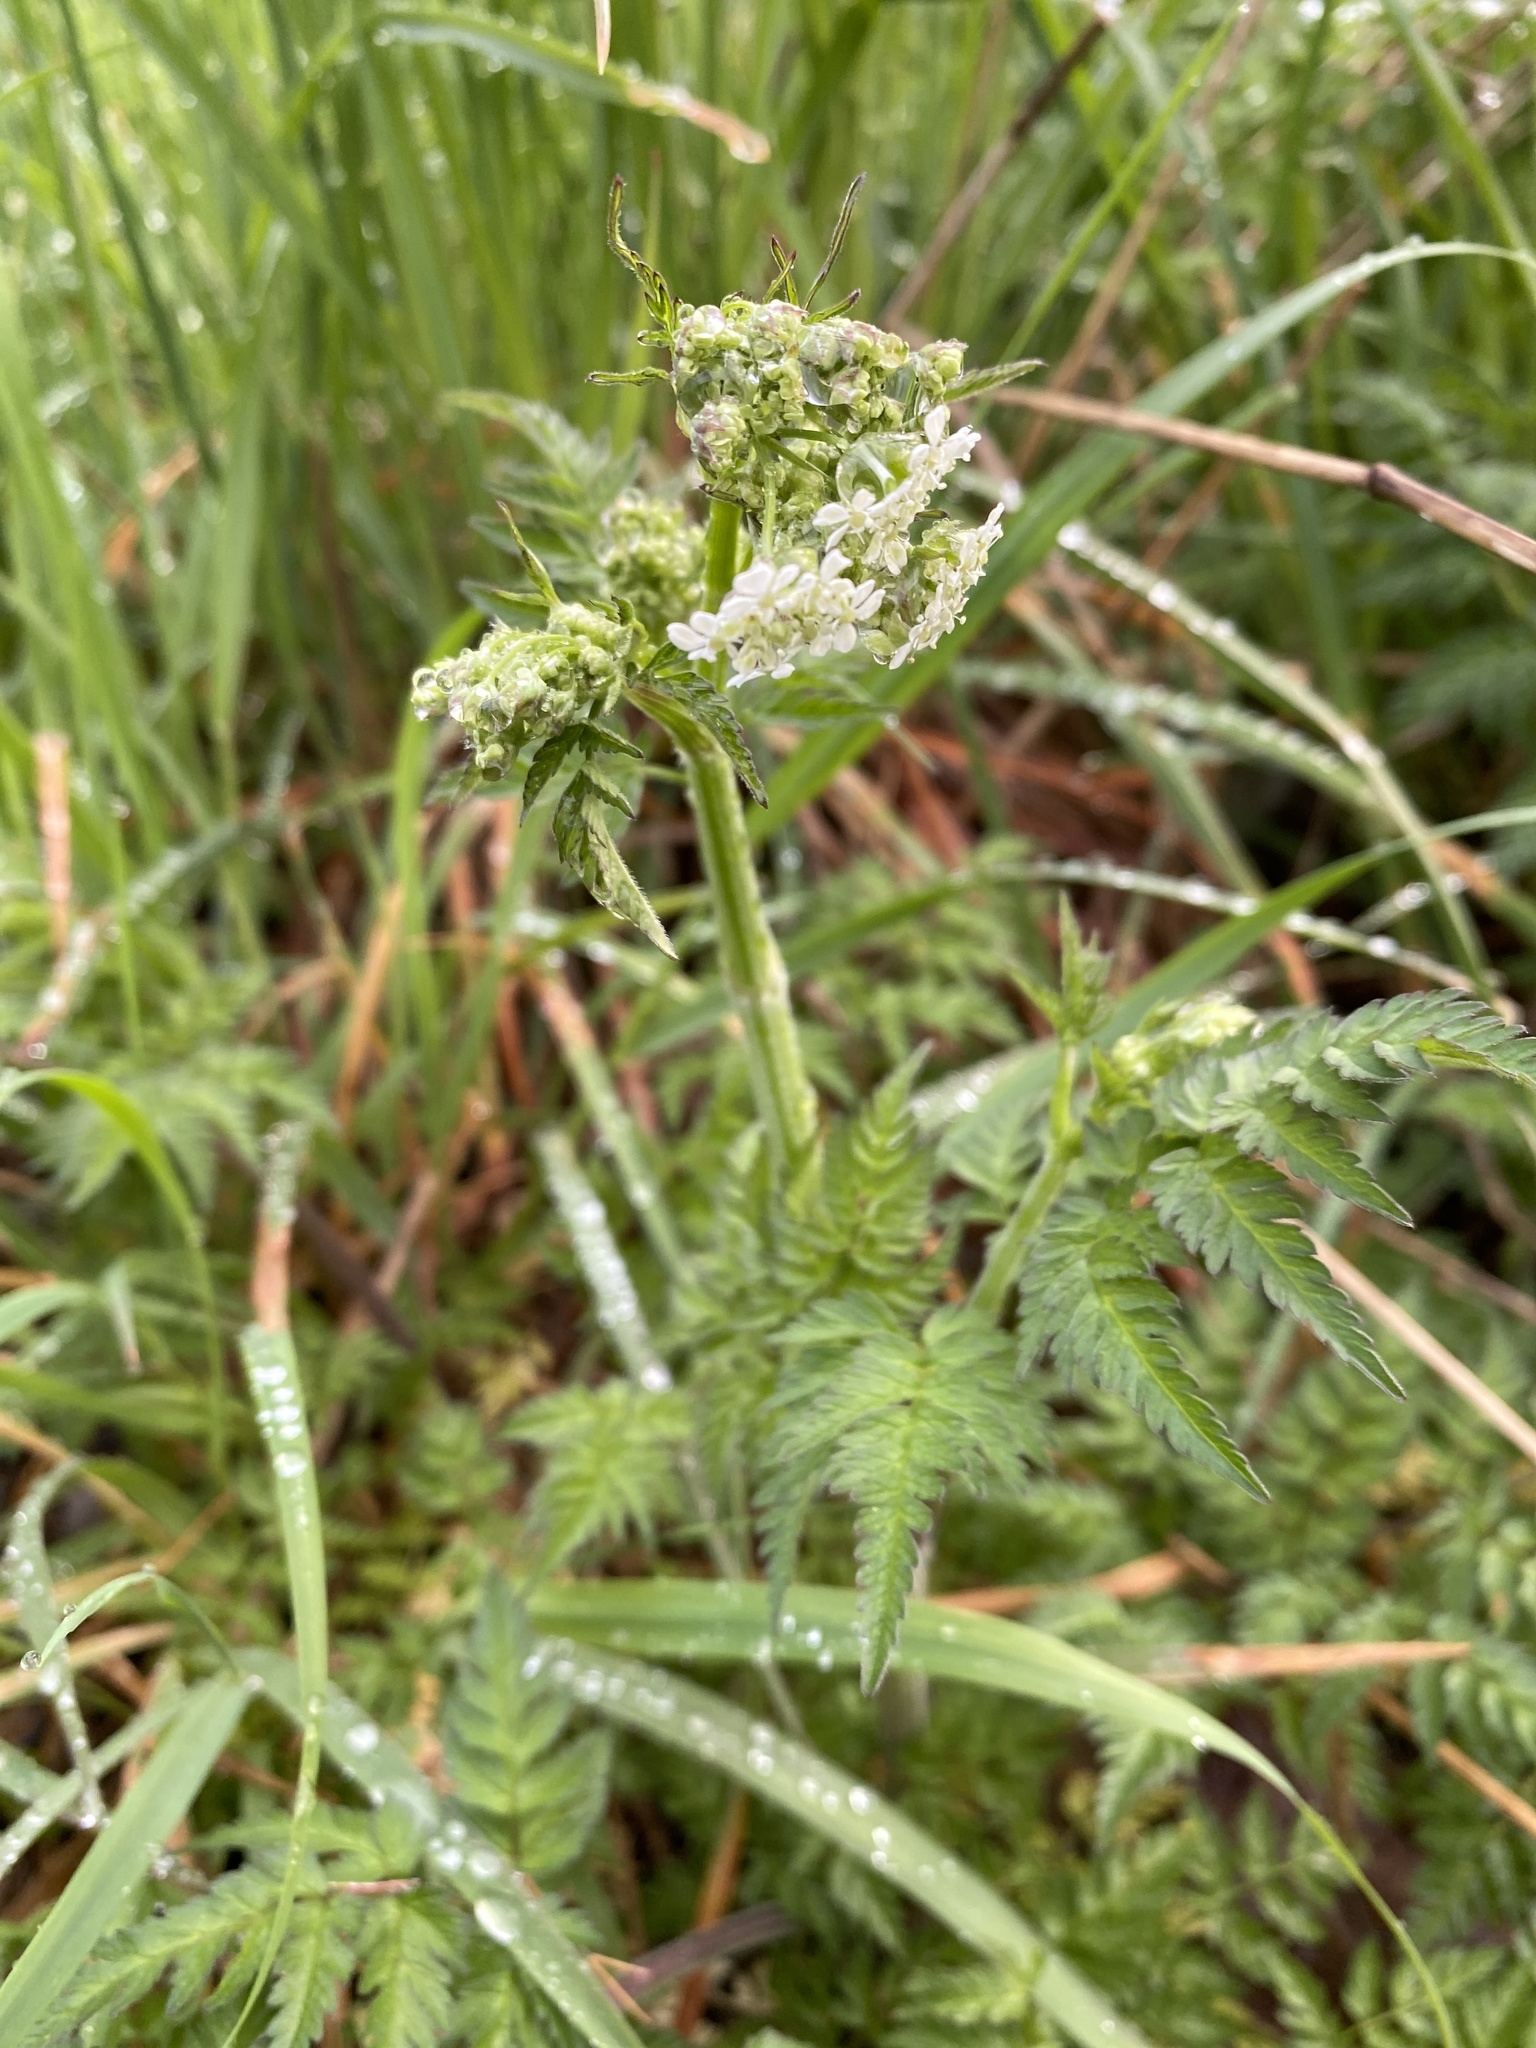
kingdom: Plantae
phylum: Tracheophyta
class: Magnoliopsida
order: Apiales
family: Apiaceae
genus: Anthriscus
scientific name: Anthriscus sylvestris
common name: Cow parsley
